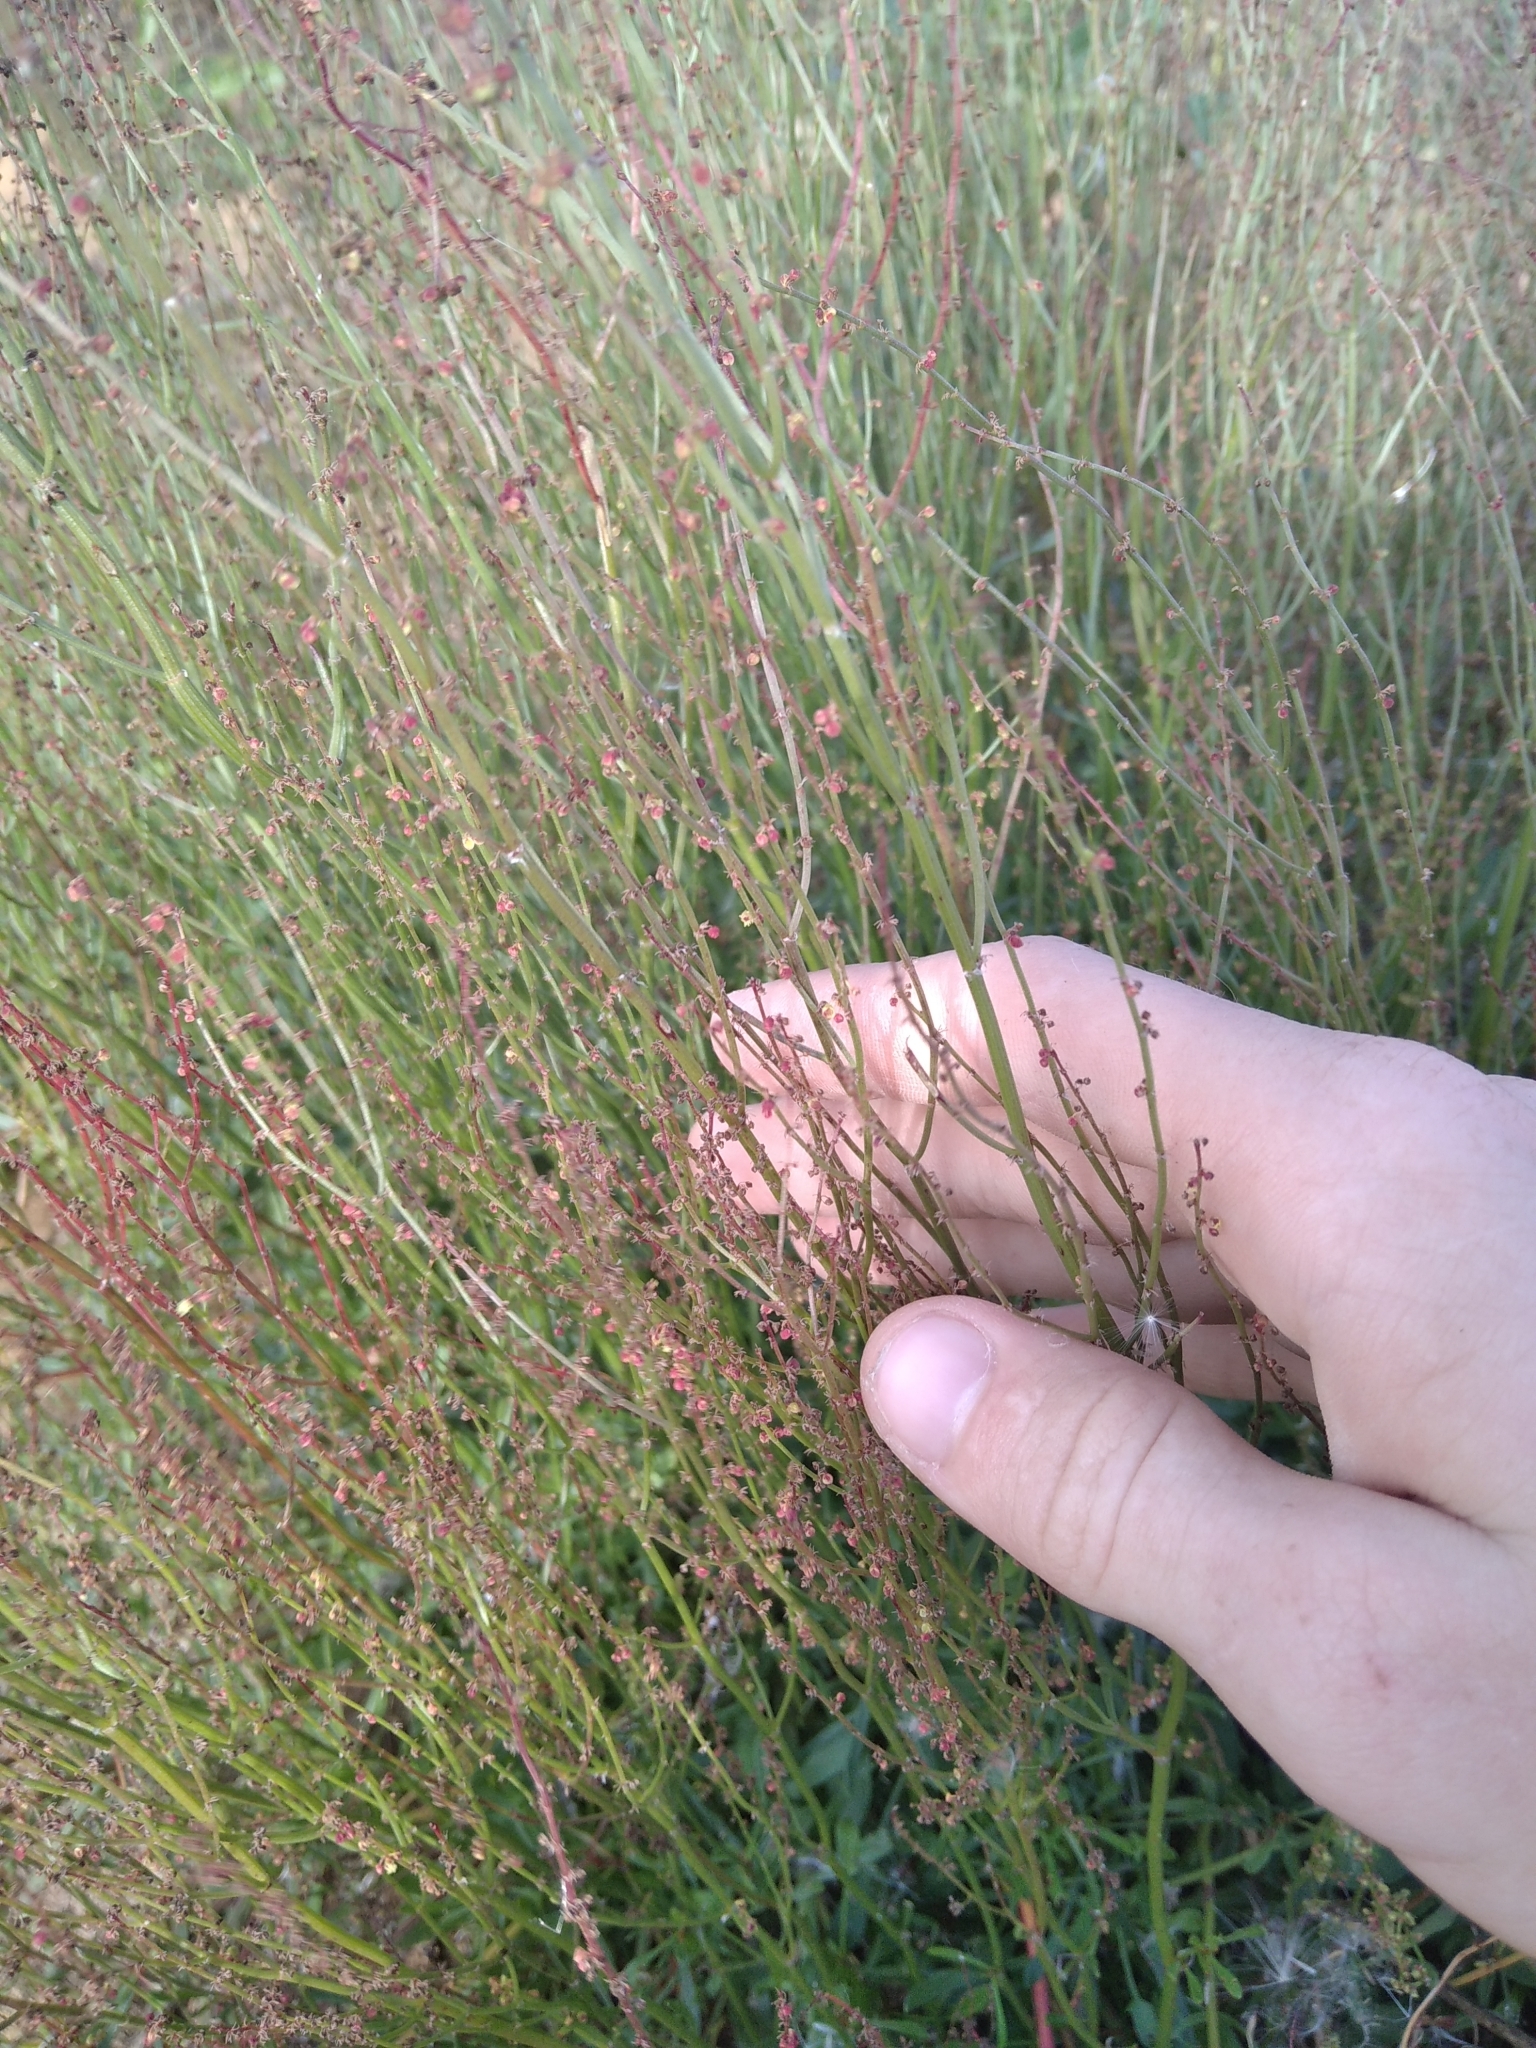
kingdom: Plantae
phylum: Tracheophyta
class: Magnoliopsida
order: Caryophyllales
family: Polygonaceae
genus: Rumex
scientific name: Rumex acetosella
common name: Common sheep sorrel
